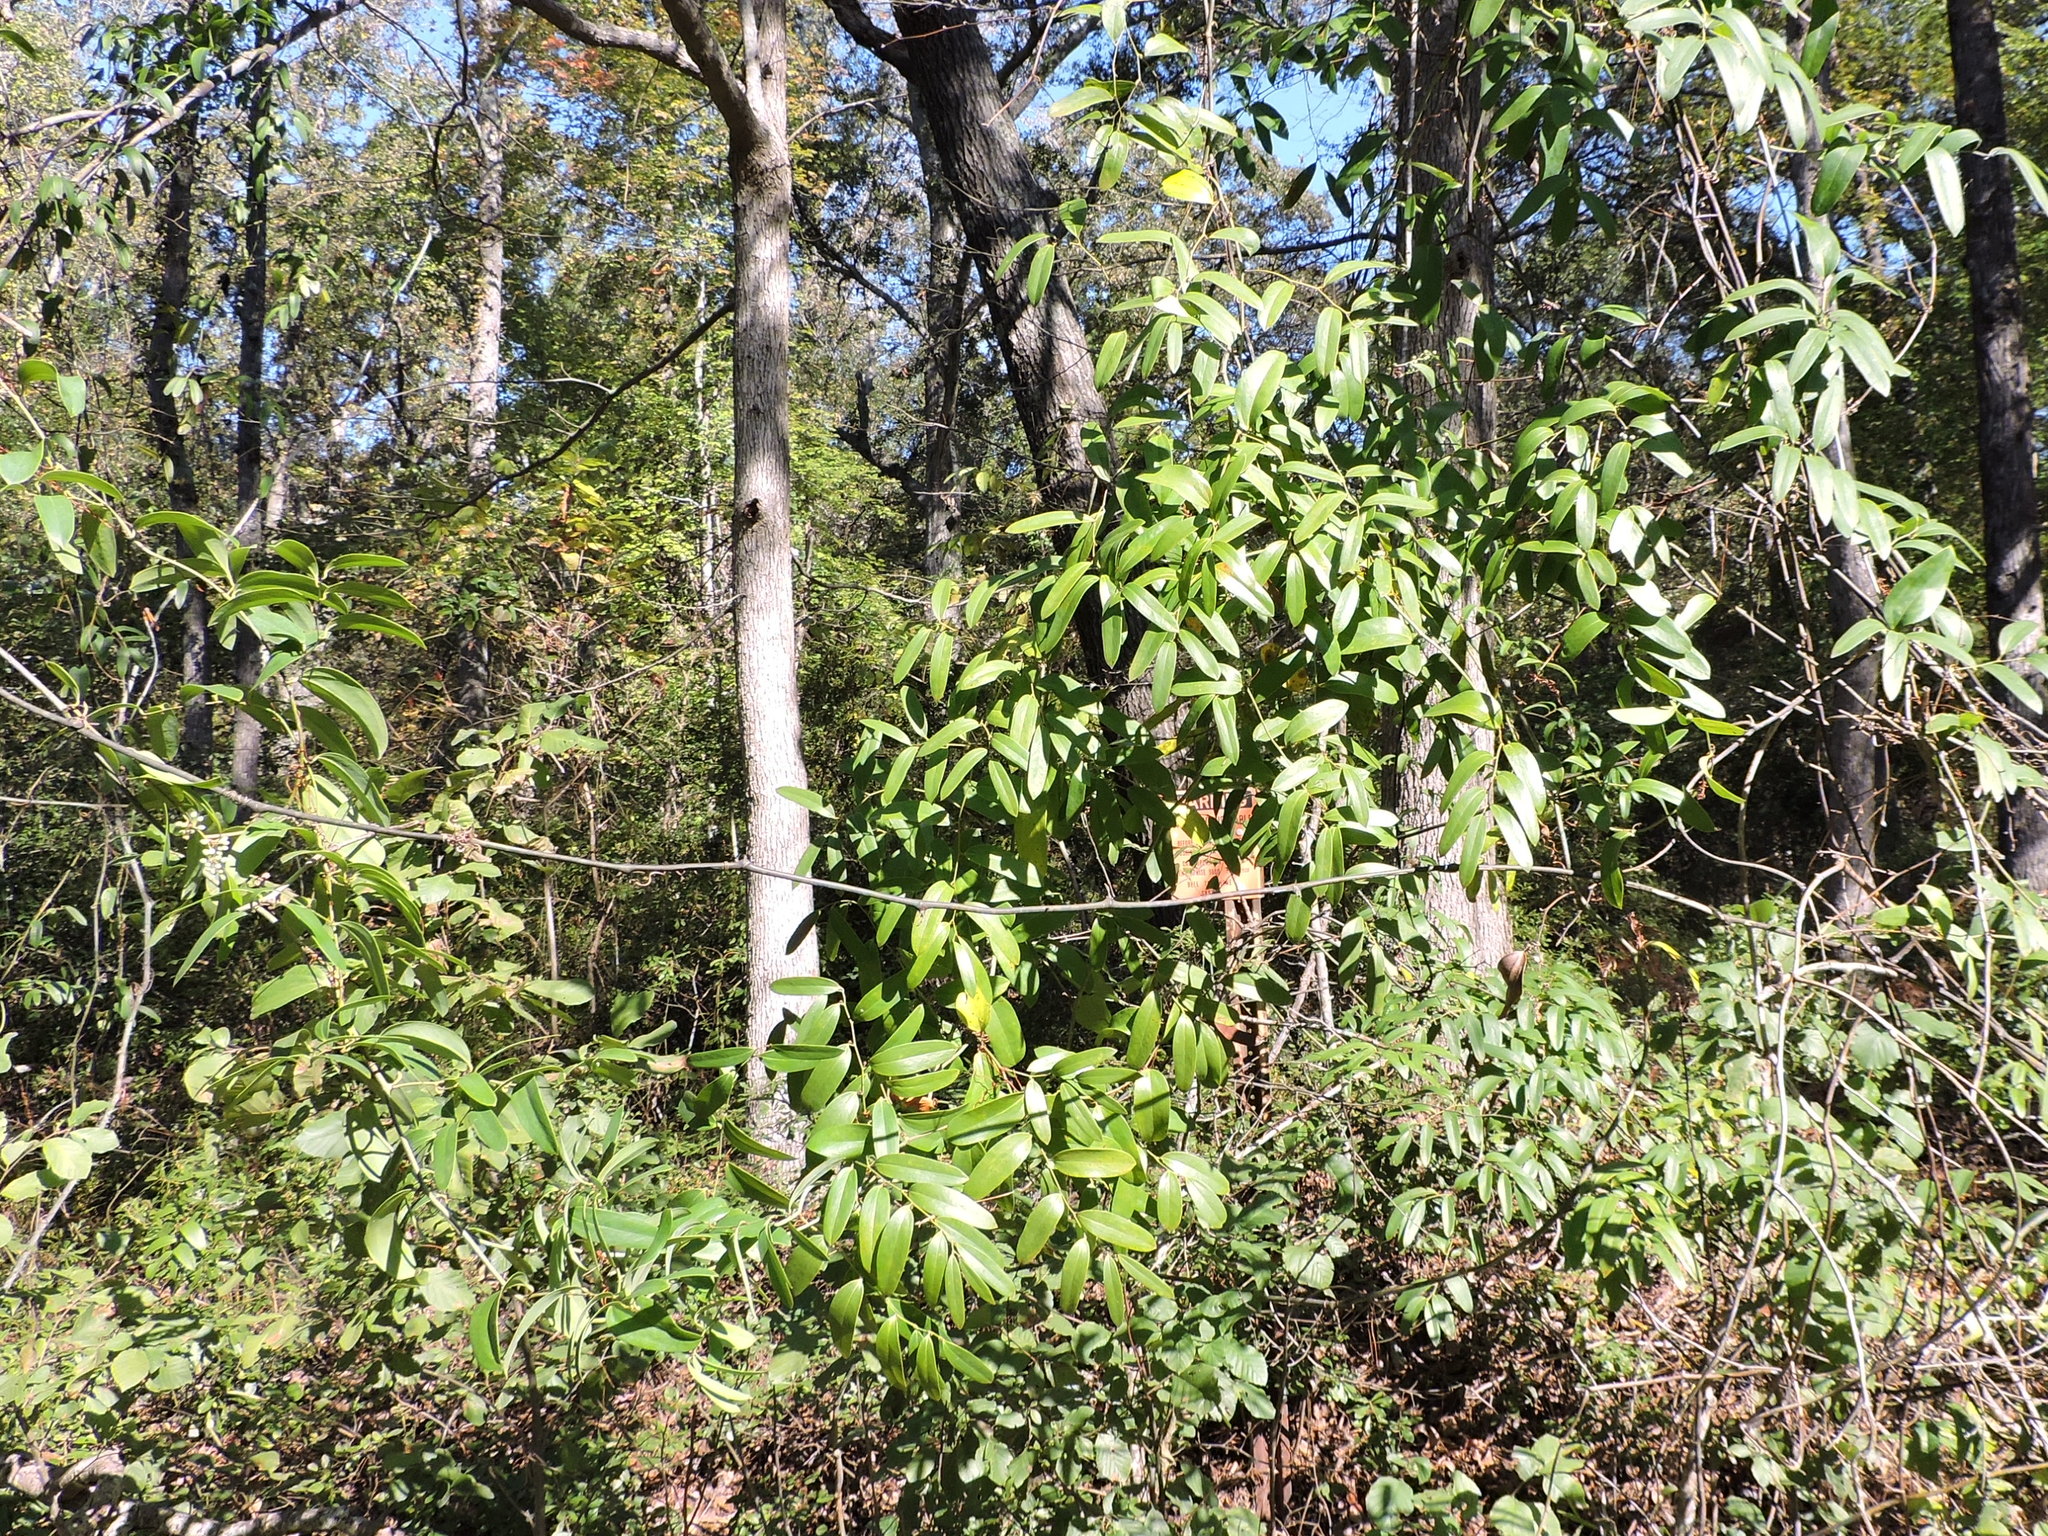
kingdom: Plantae
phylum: Tracheophyta
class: Liliopsida
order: Liliales
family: Smilacaceae
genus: Smilax
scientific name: Smilax laurifolia
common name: Bamboovine
